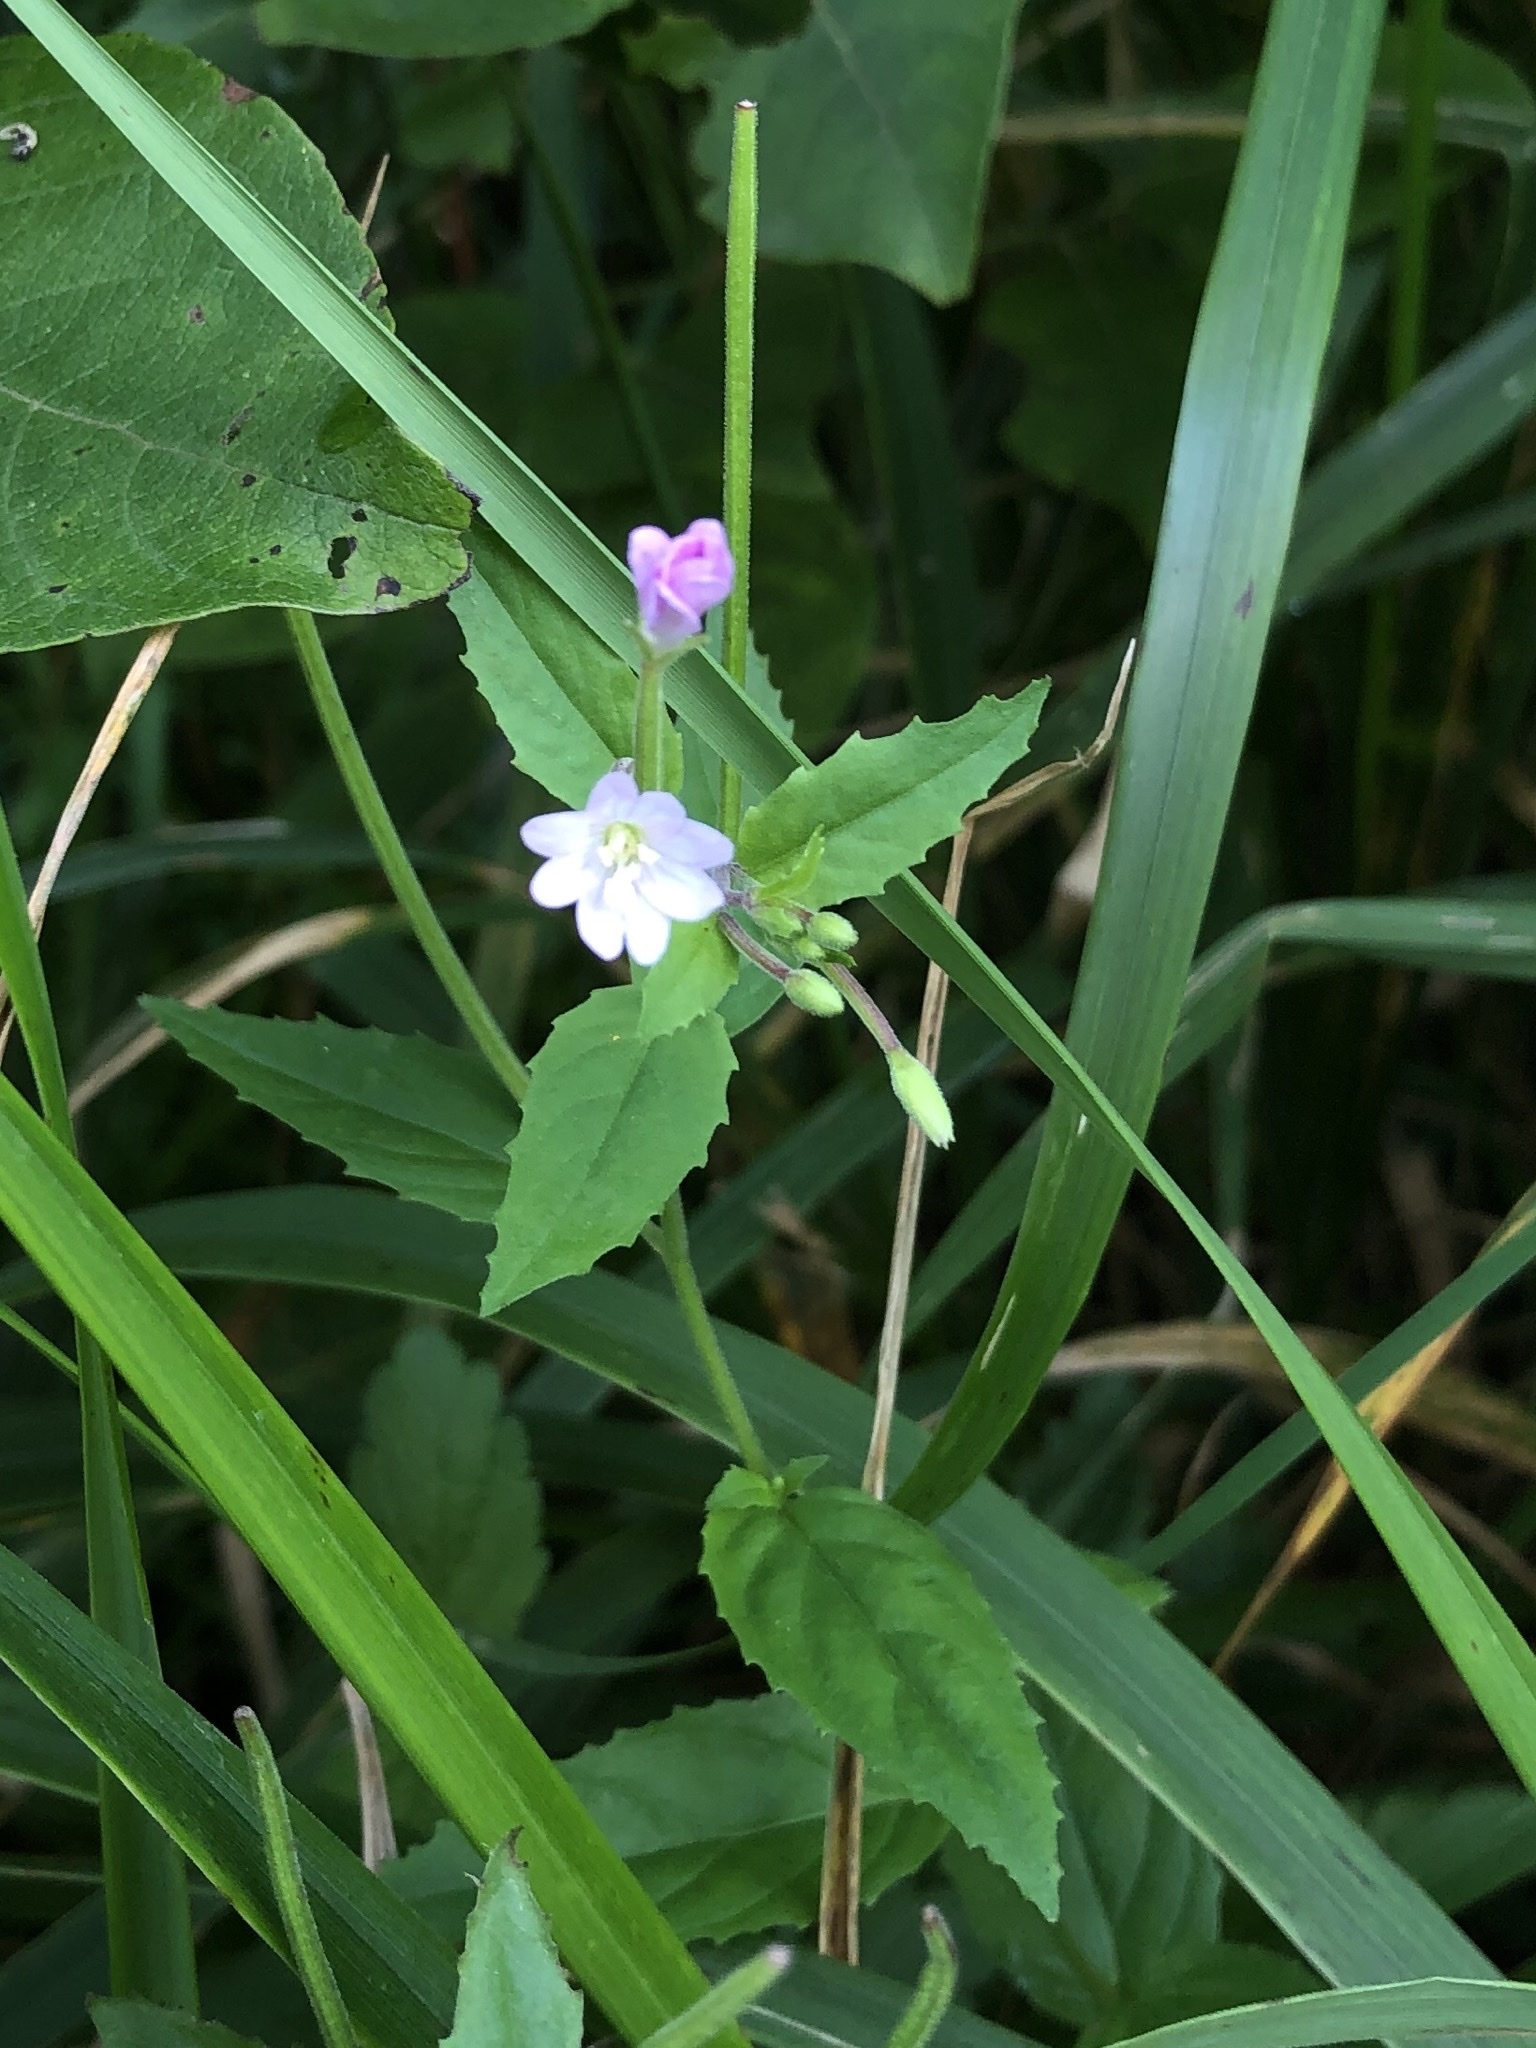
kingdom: Plantae
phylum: Tracheophyta
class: Magnoliopsida
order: Myrtales
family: Onagraceae
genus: Epilobium
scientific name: Epilobium montanum
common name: Broad-leaved willowherb
